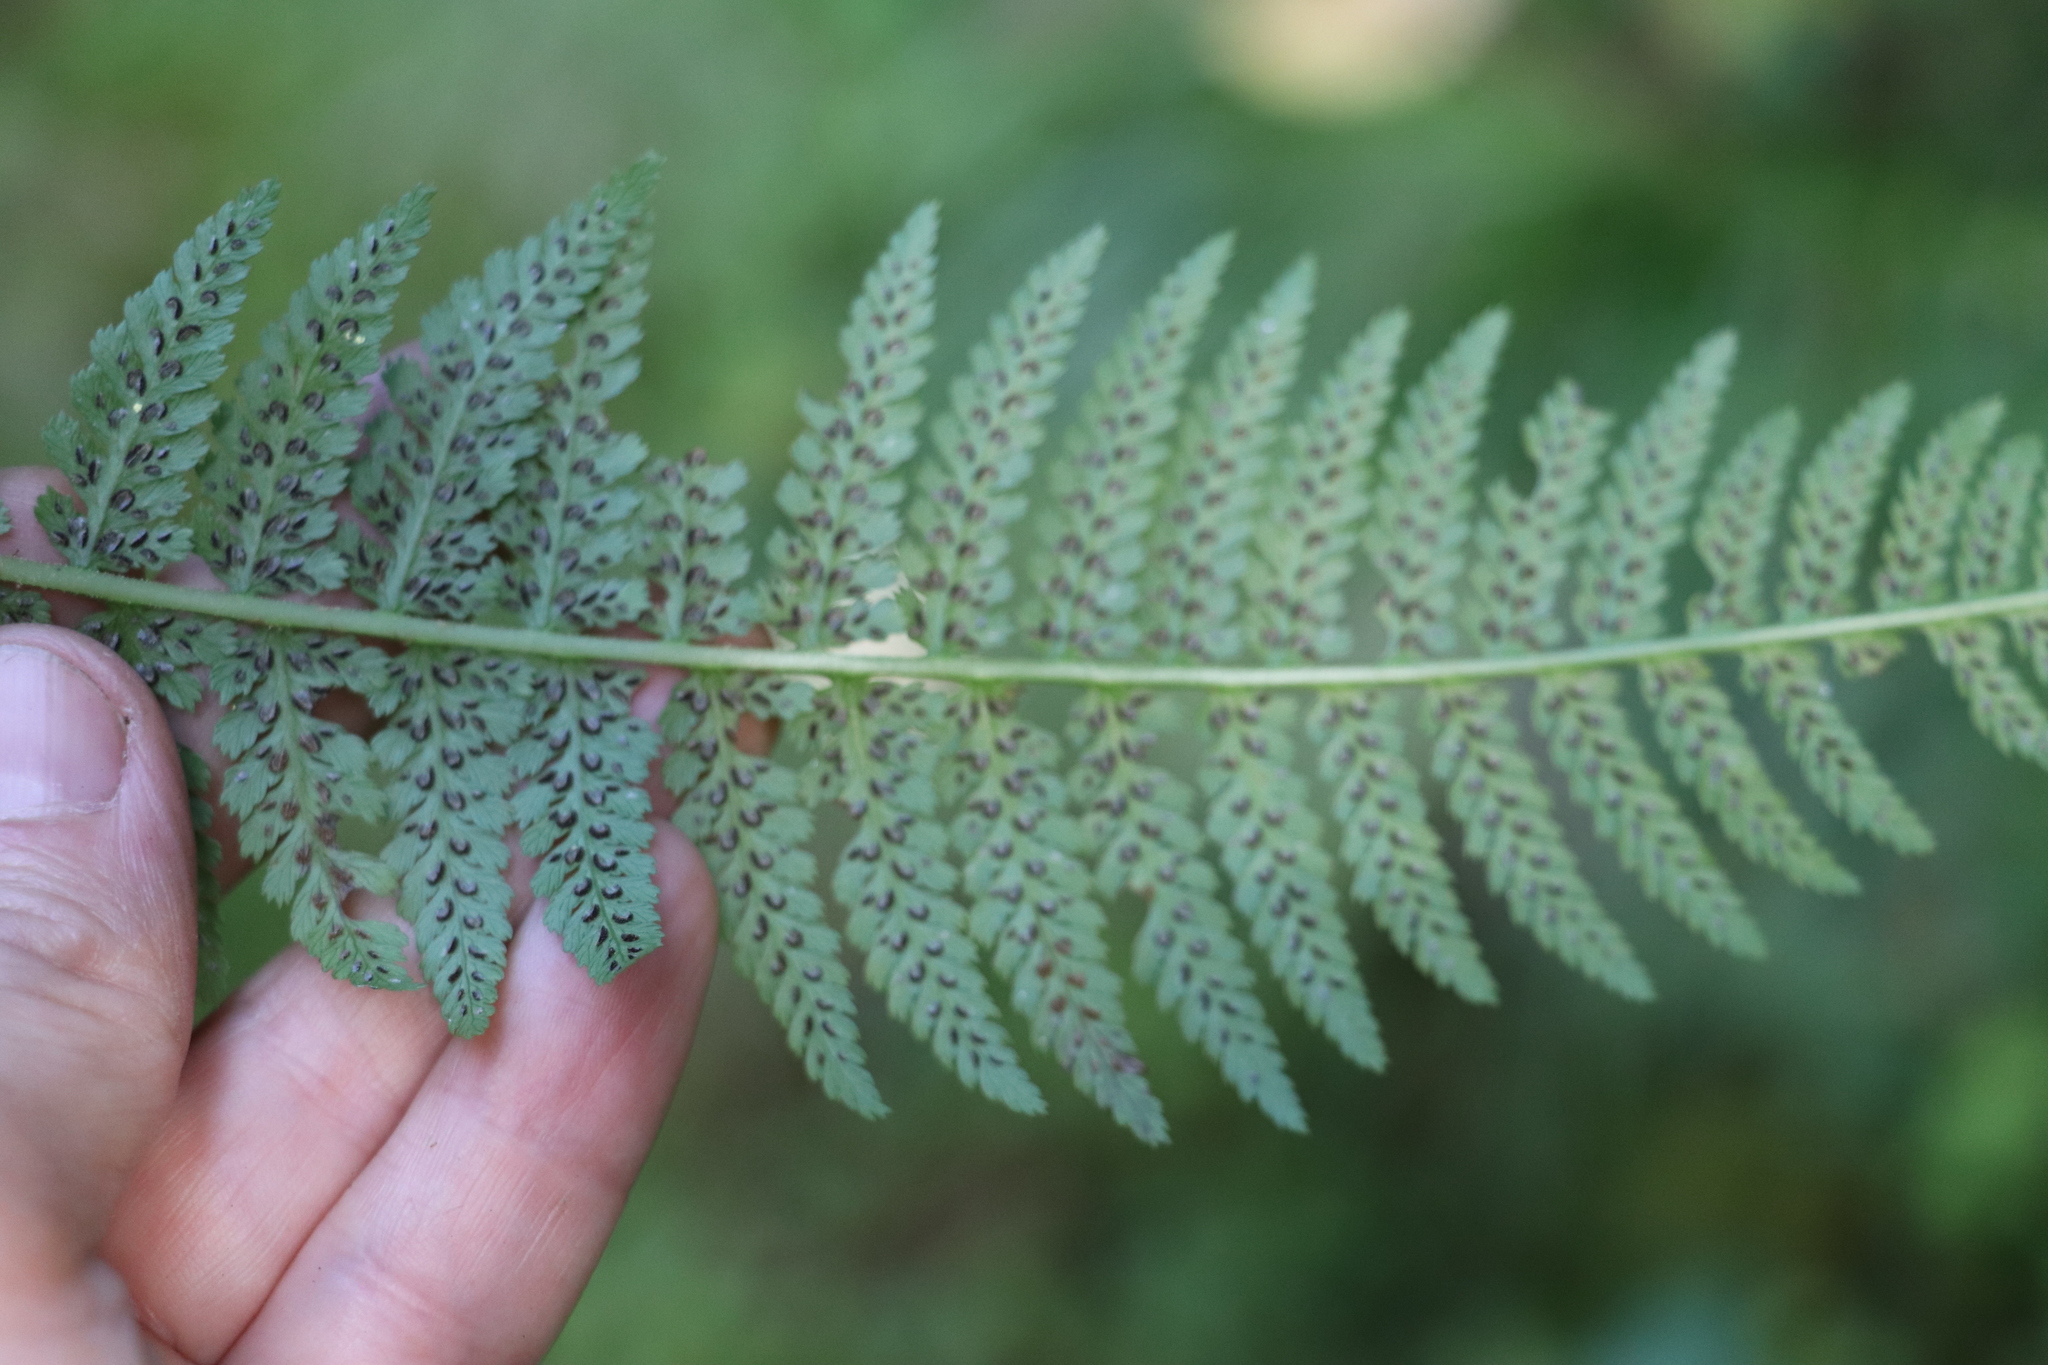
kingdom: Plantae
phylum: Tracheophyta
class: Polypodiopsida
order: Polypodiales
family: Athyriaceae
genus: Athyrium
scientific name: Athyrium filix-femina
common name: Lady fern
